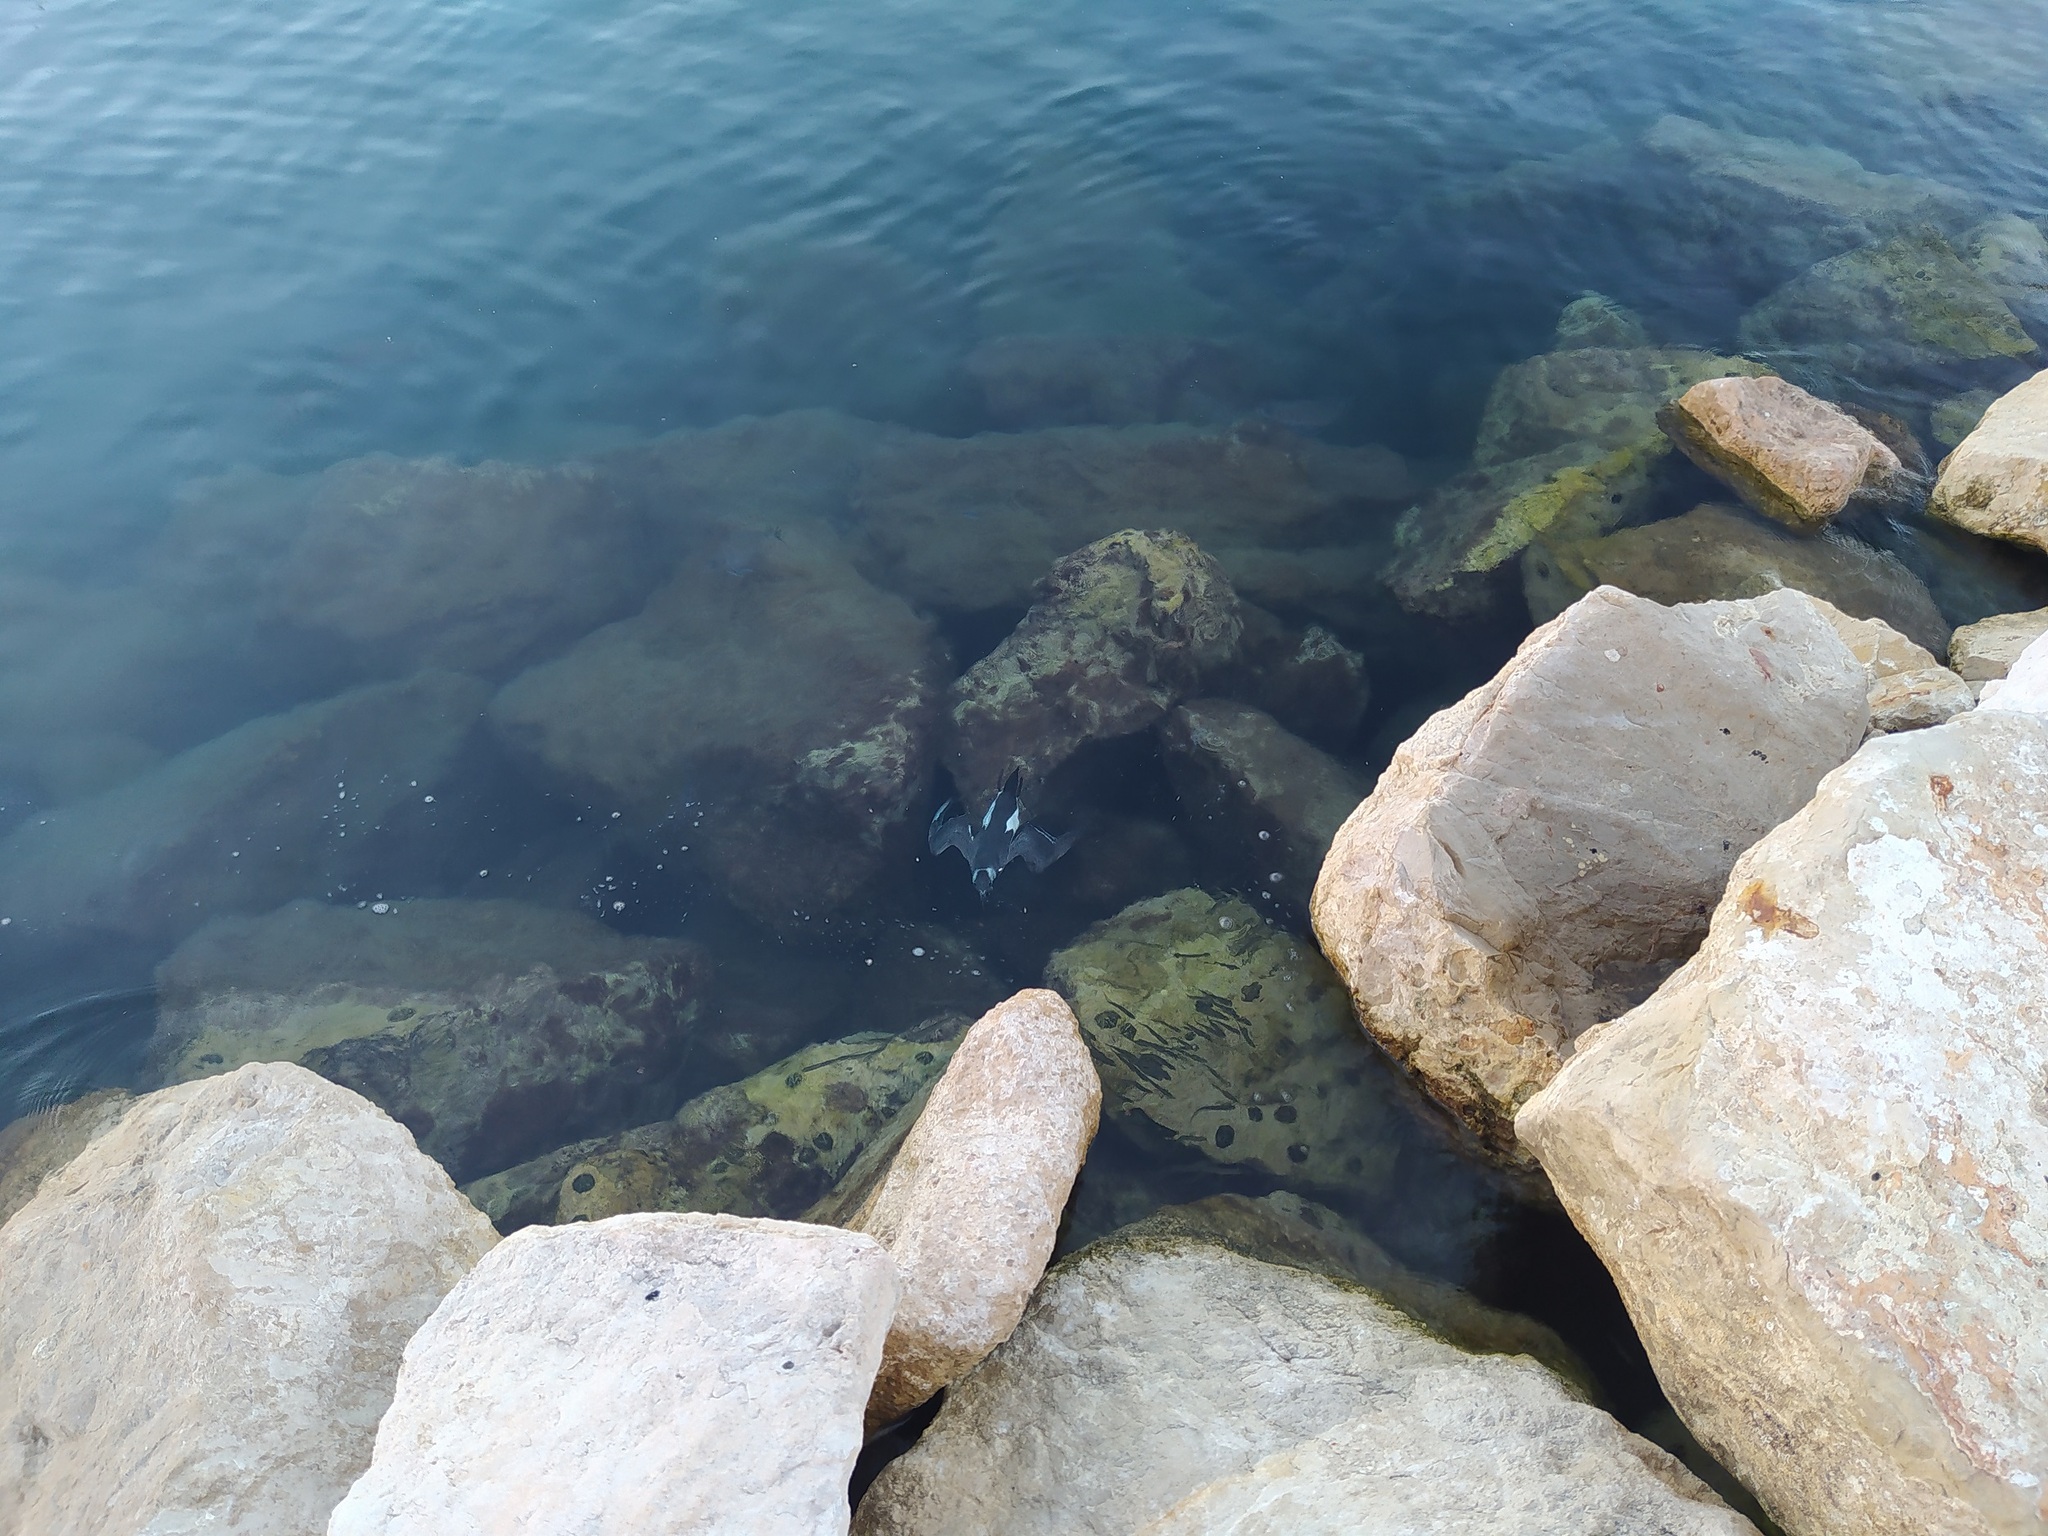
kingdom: Animalia
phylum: Chordata
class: Aves
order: Charadriiformes
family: Alcidae
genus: Alca
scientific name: Alca torda
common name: Razorbill
